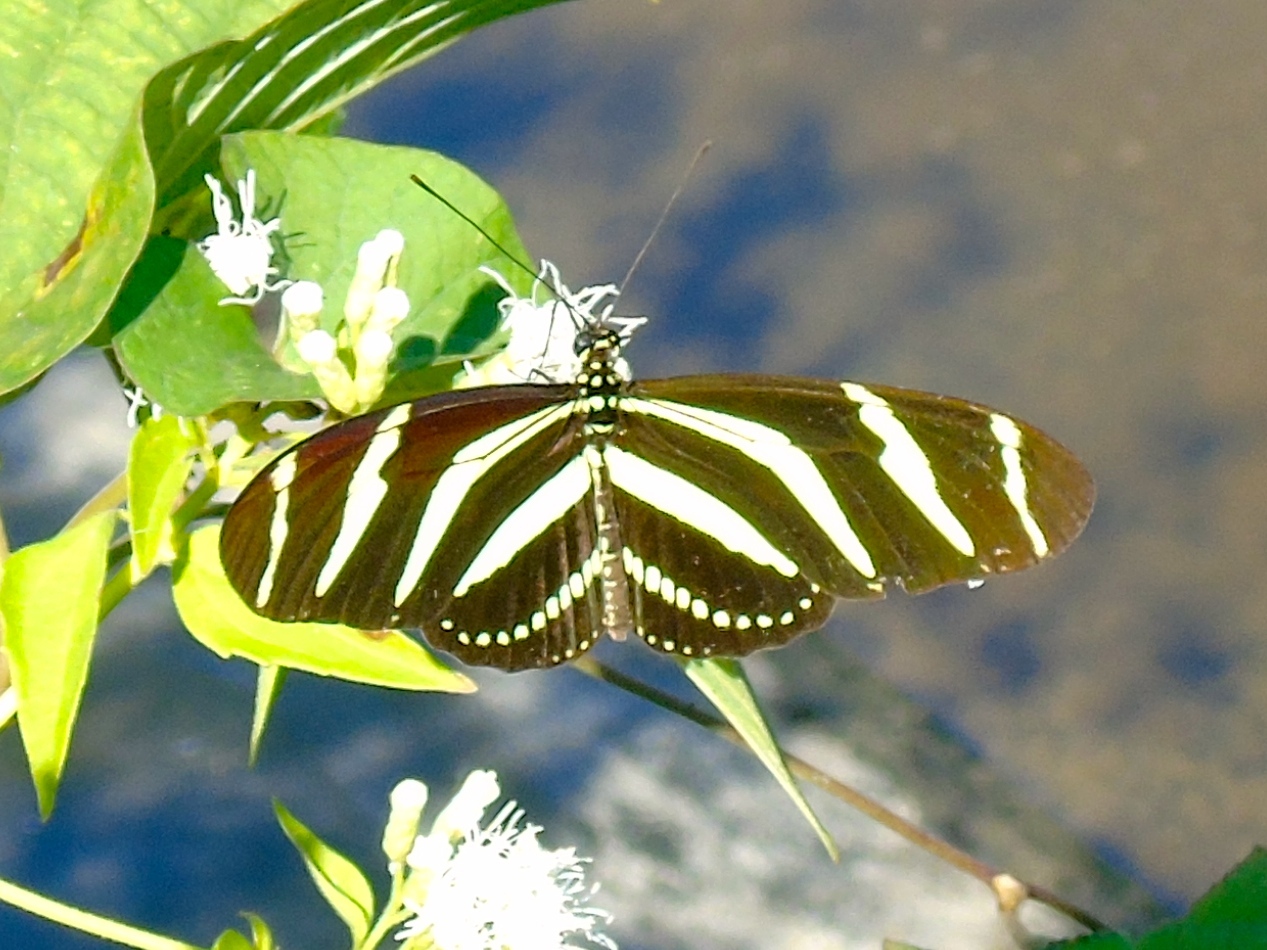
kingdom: Animalia
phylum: Arthropoda
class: Insecta
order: Lepidoptera
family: Nymphalidae
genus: Heliconius
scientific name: Heliconius charithonia
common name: Zebra long wing
